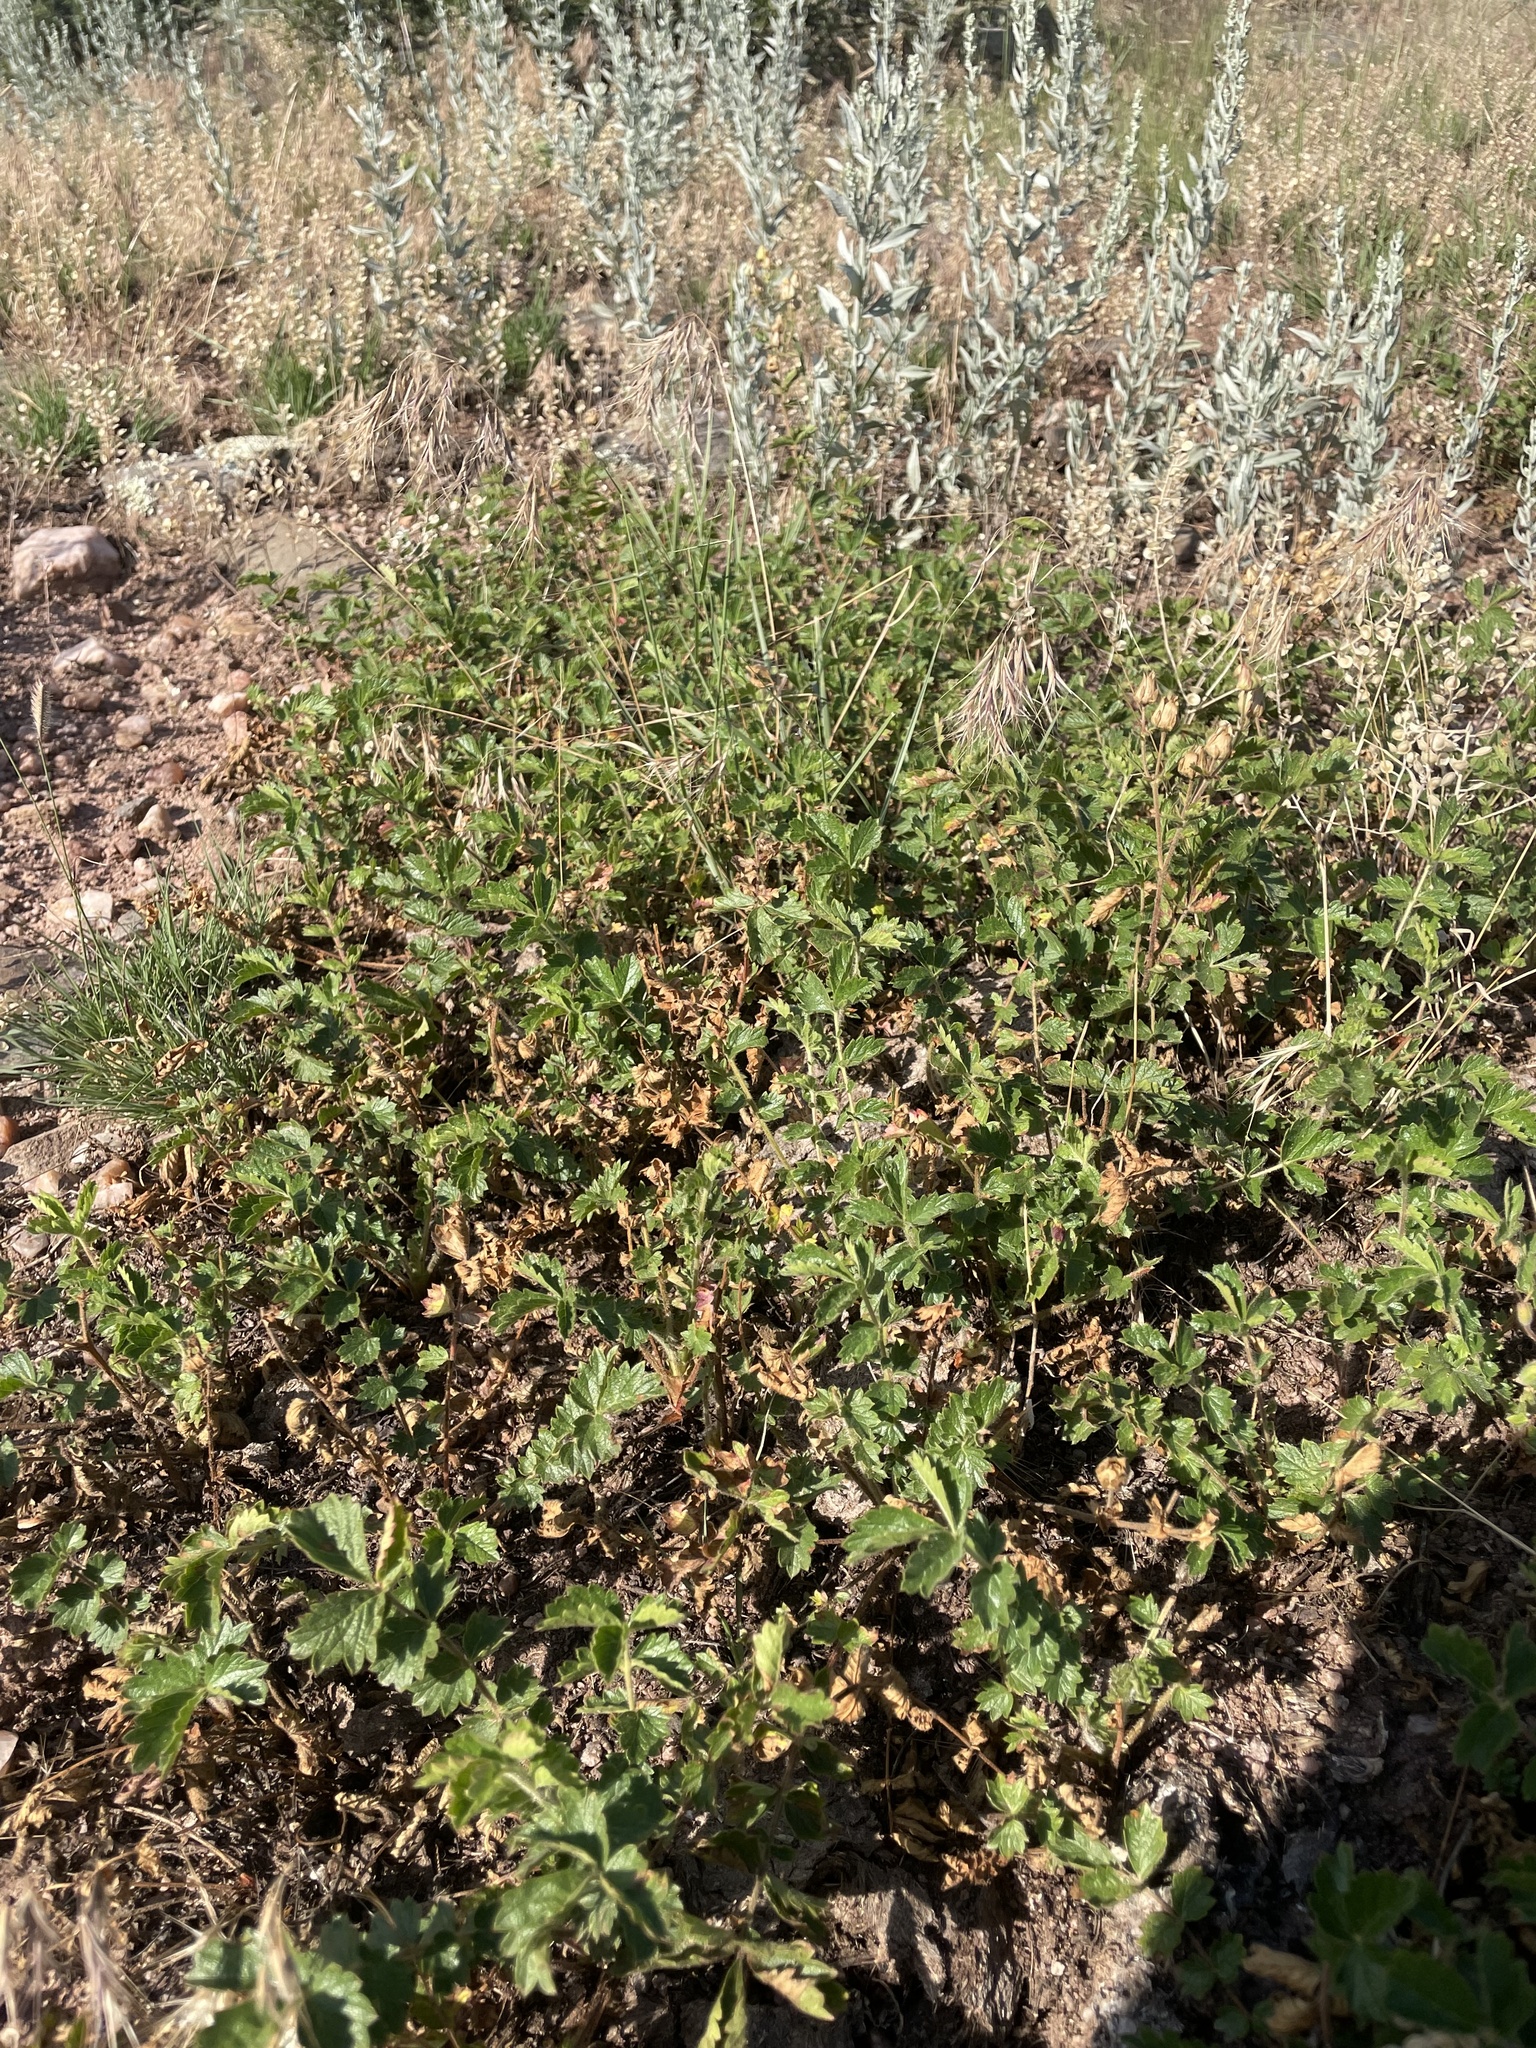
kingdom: Plantae
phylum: Tracheophyta
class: Magnoliopsida
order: Rosales
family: Rosaceae
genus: Drymocallis
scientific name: Drymocallis fissa
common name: Big-flowered cinquefoil
